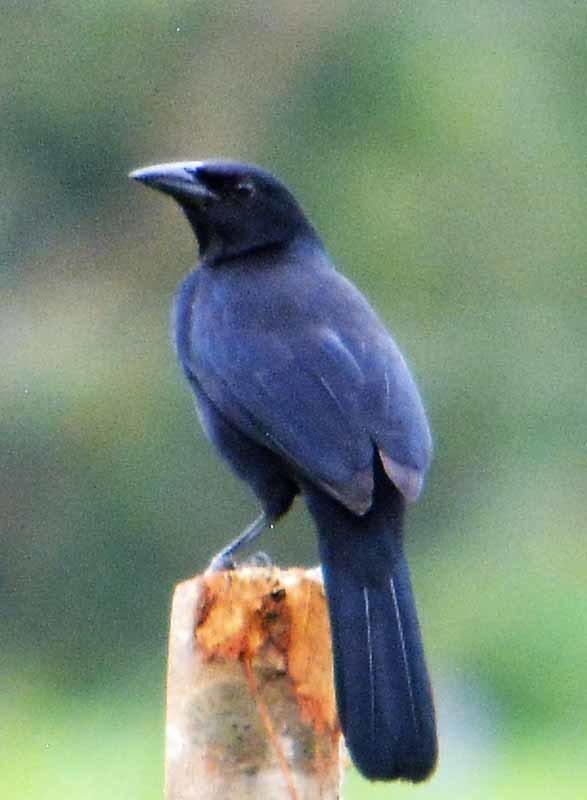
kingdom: Animalia
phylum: Chordata
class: Aves
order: Passeriformes
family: Icteridae
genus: Dives
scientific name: Dives dives
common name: Melodious blackbird
